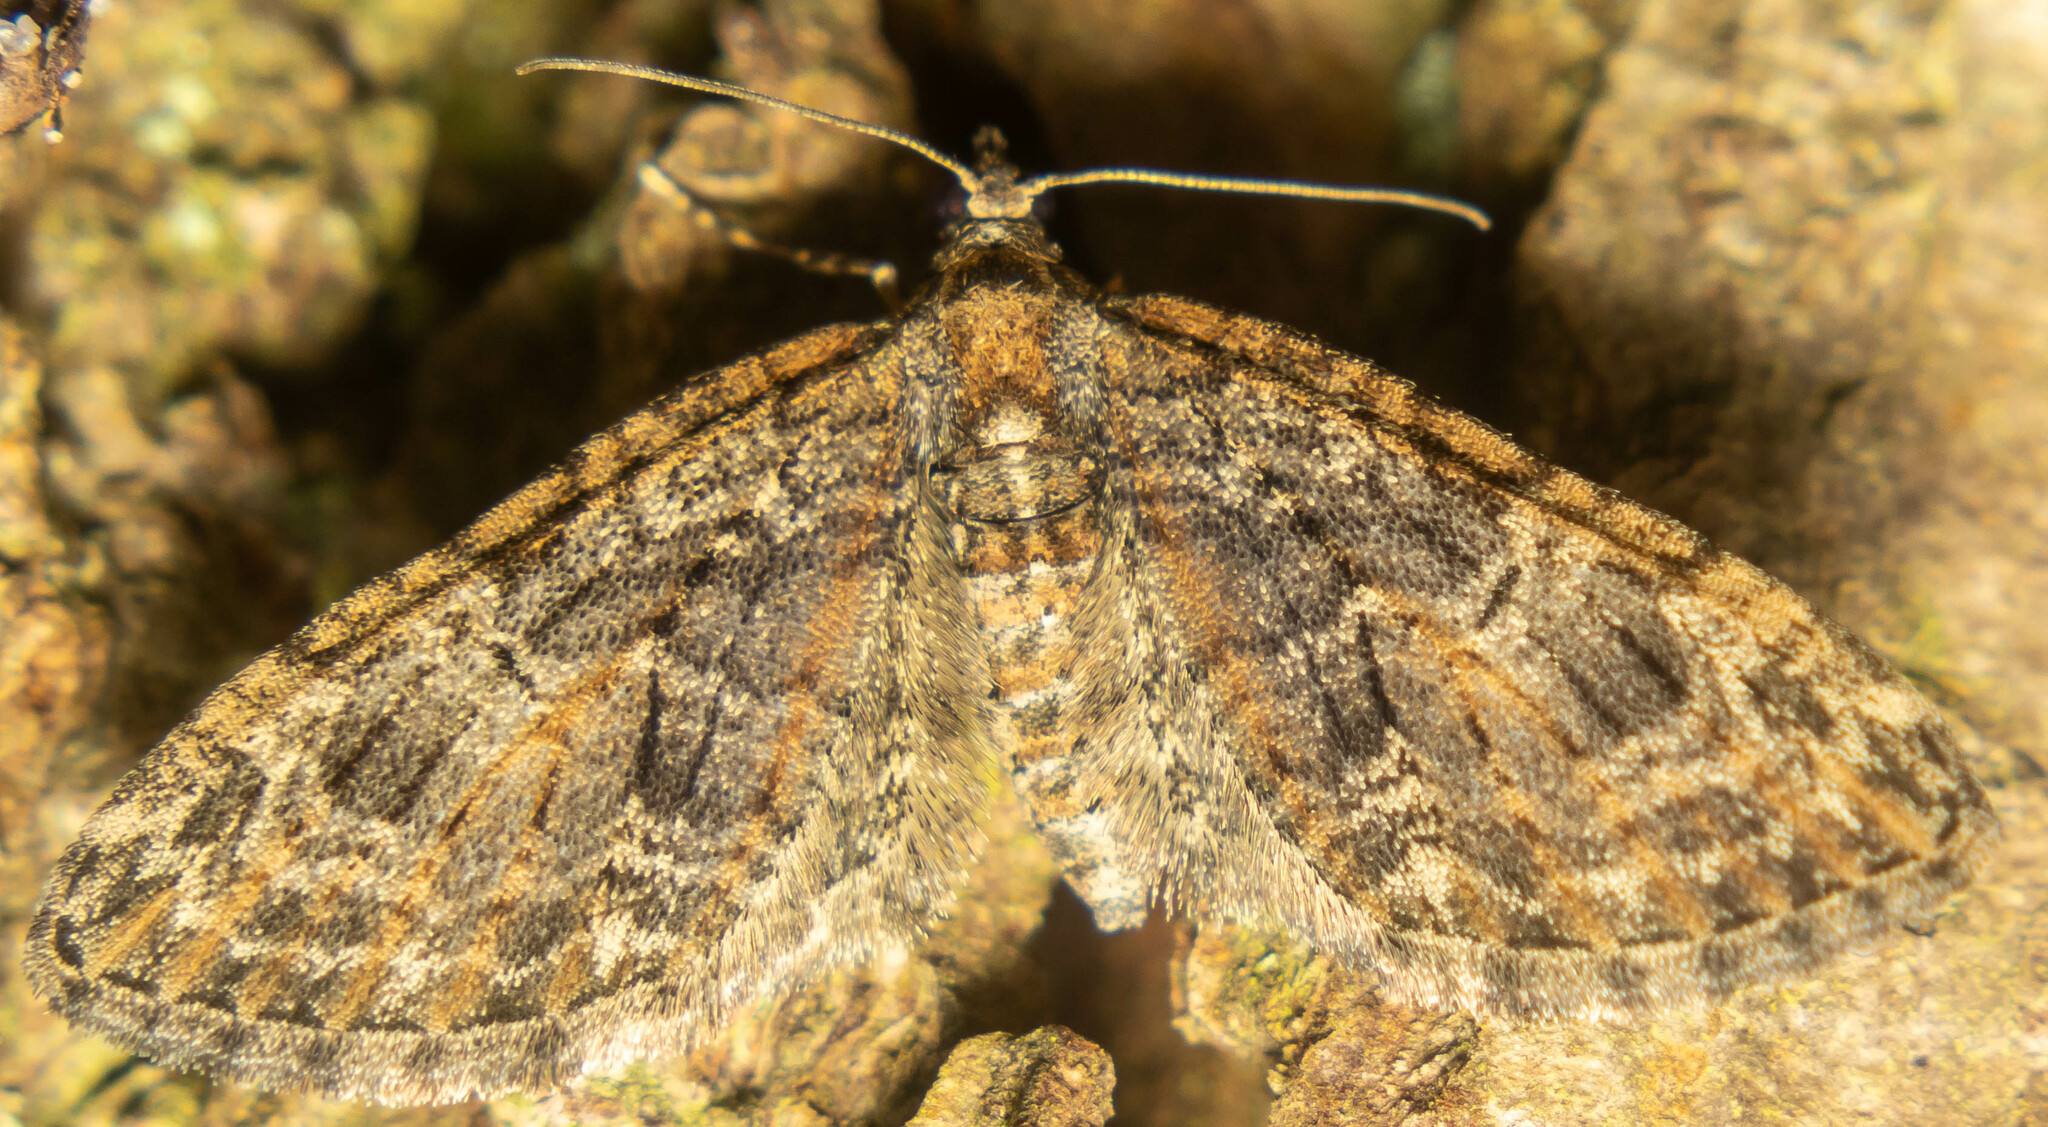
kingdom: Animalia
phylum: Arthropoda
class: Insecta
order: Lepidoptera
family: Geometridae
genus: Eupithecia
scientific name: Eupithecia abbreviata
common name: Brindled pug
